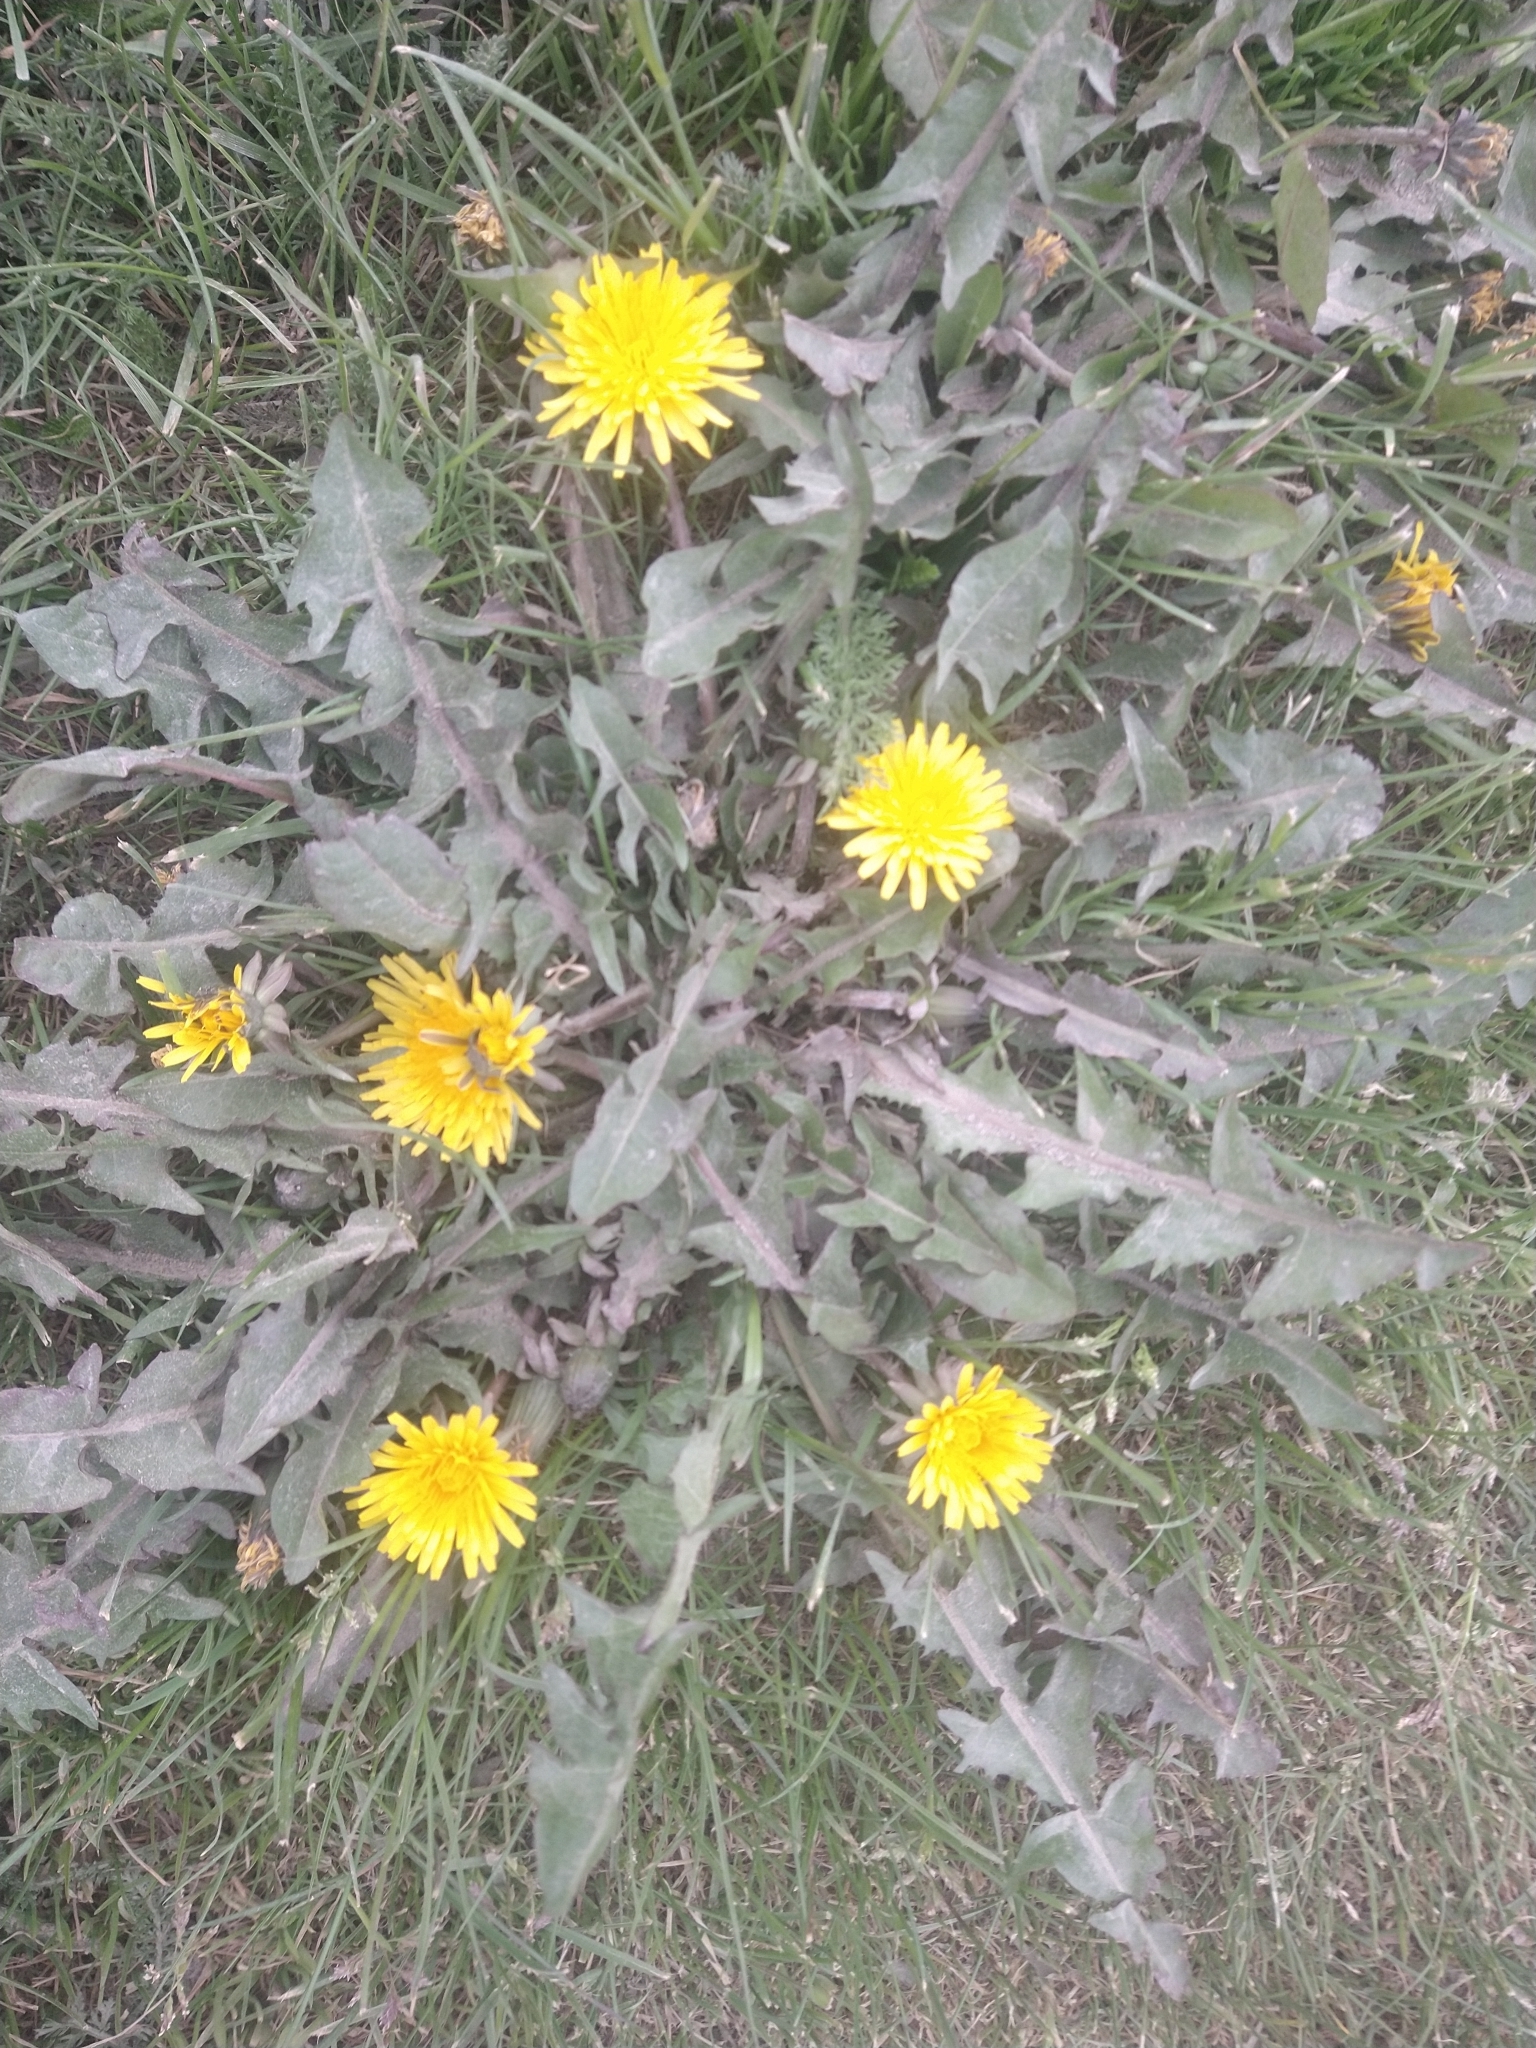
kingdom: Plantae
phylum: Tracheophyta
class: Magnoliopsida
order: Asterales
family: Asteraceae
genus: Taraxacum
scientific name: Taraxacum officinale
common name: Common dandelion
